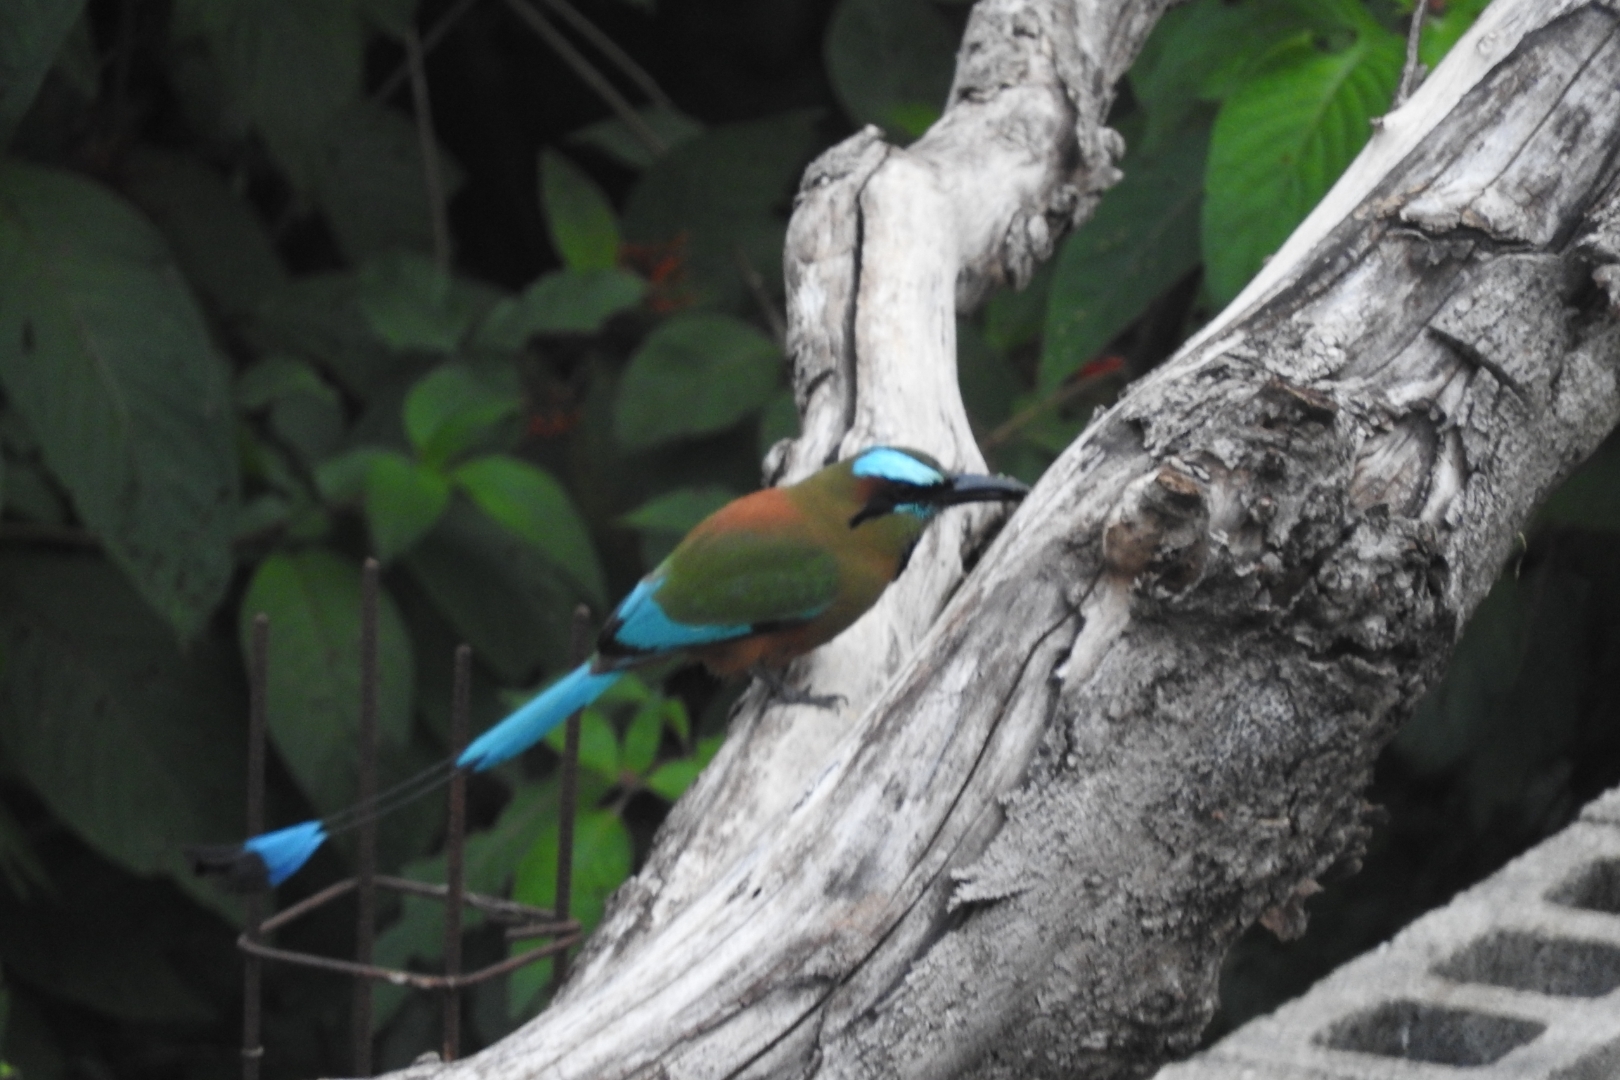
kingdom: Animalia
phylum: Chordata
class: Aves
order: Coraciiformes
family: Momotidae
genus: Eumomota
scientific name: Eumomota superciliosa
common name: Turquoise-browed motmot
